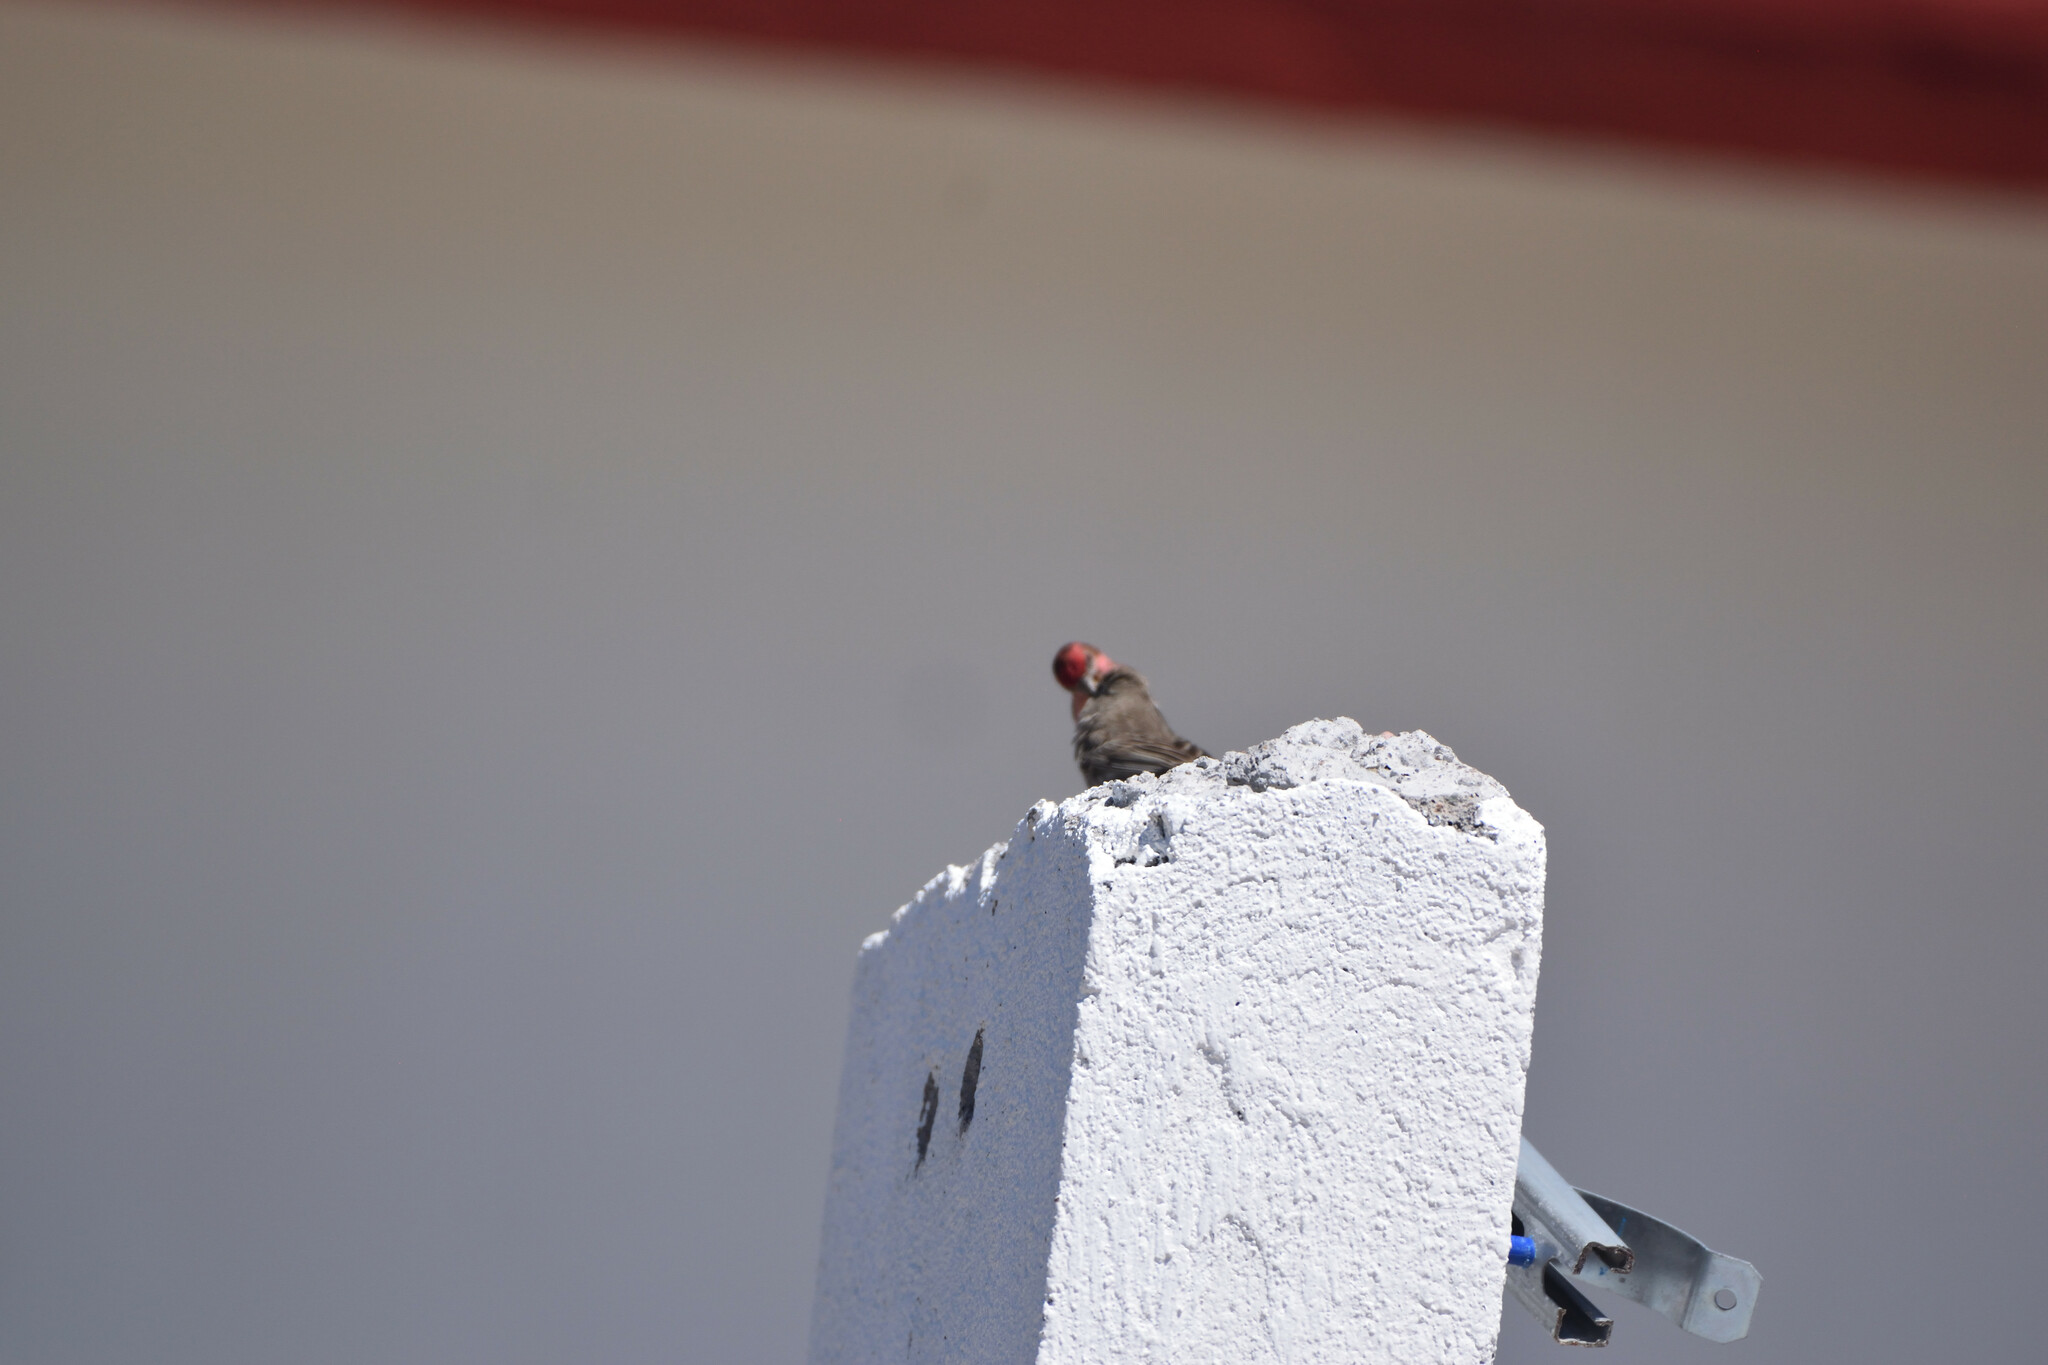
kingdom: Animalia
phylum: Chordata
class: Aves
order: Passeriformes
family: Fringillidae
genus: Haemorhous
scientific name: Haemorhous mexicanus
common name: House finch
